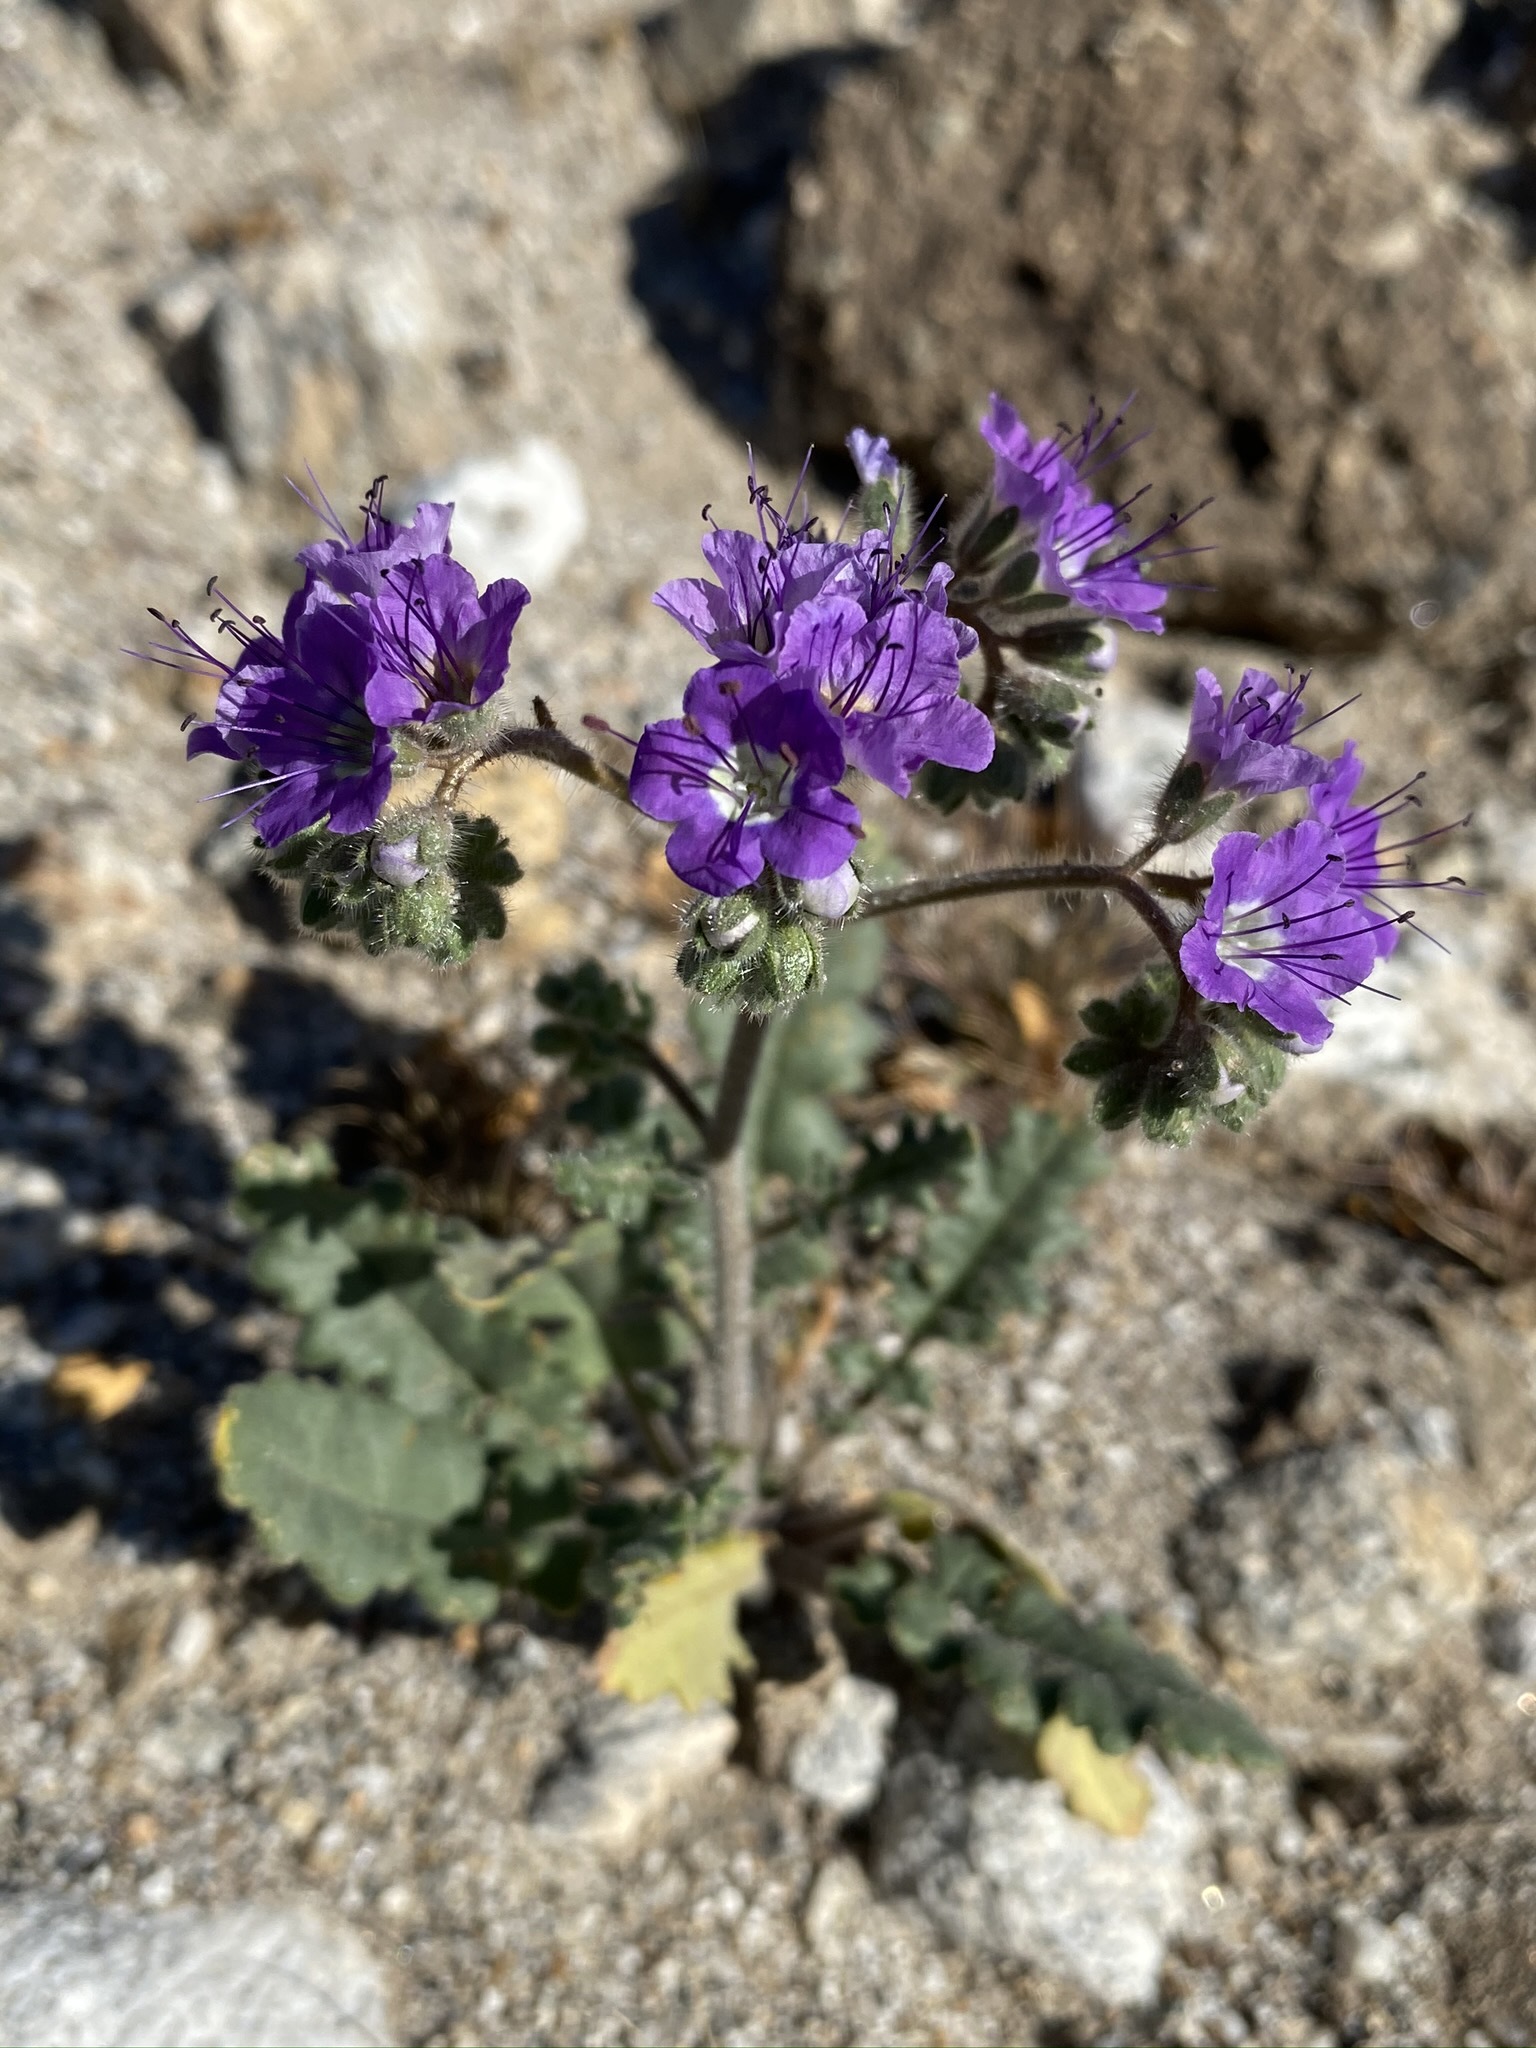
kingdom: Plantae
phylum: Tracheophyta
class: Magnoliopsida
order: Boraginales
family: Hydrophyllaceae
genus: Phacelia
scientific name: Phacelia crenulata
